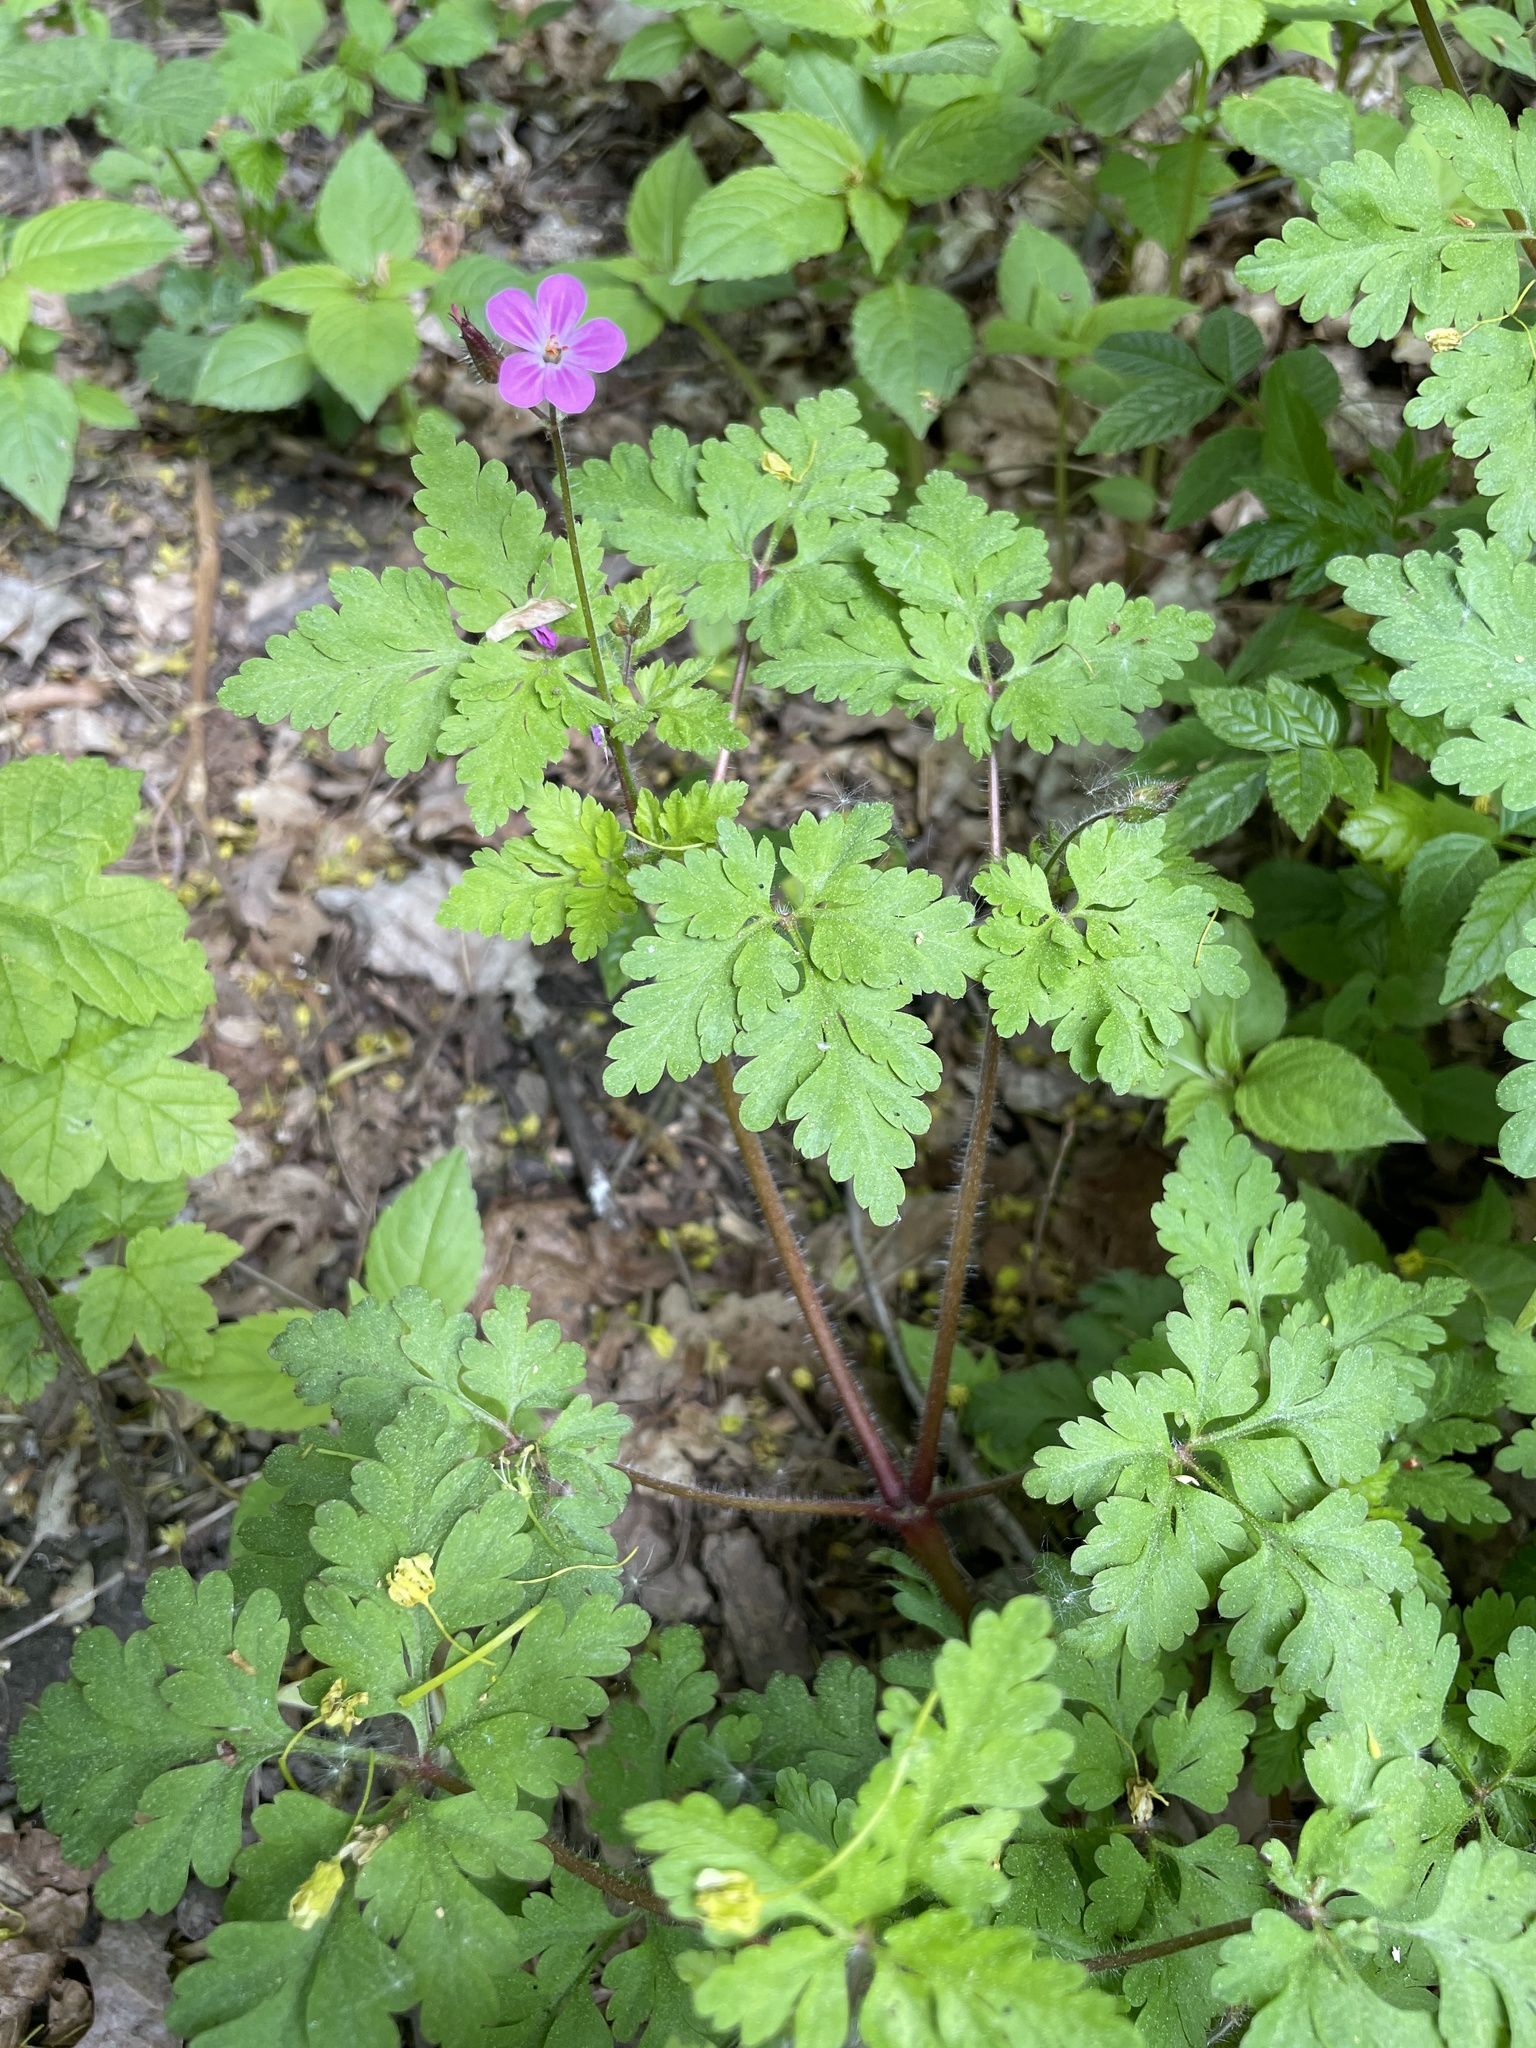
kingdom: Plantae
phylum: Tracheophyta
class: Magnoliopsida
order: Geraniales
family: Geraniaceae
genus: Geranium
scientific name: Geranium robertianum
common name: Herb-robert
